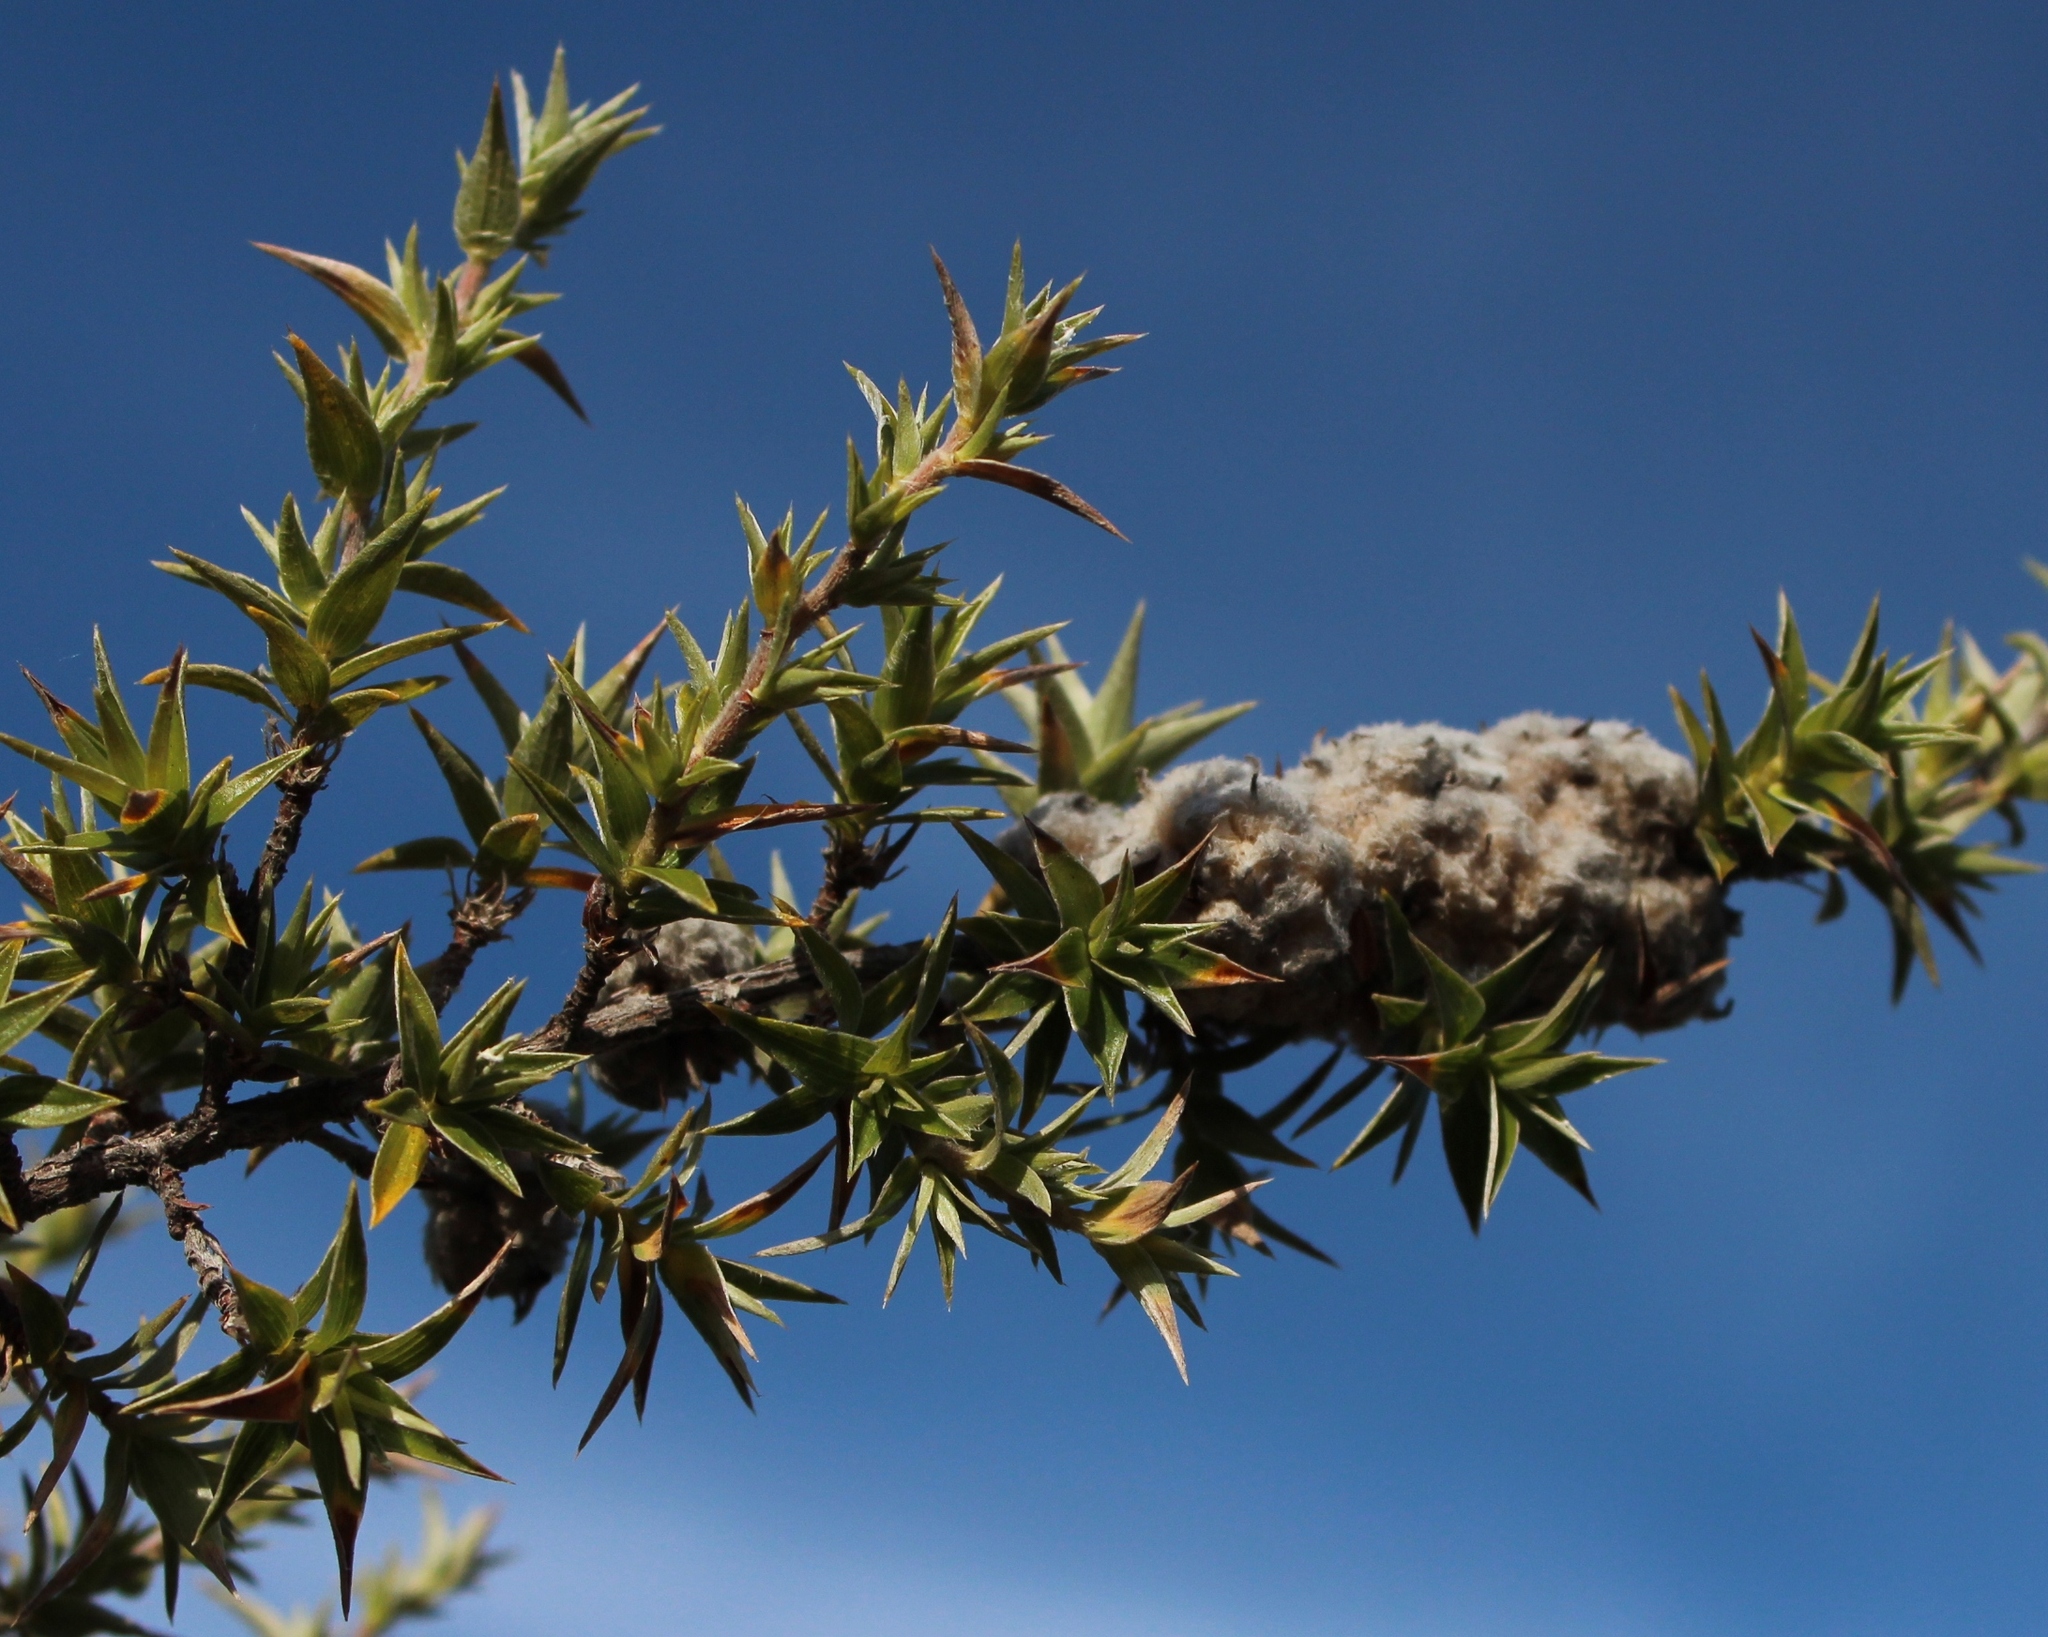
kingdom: Plantae
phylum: Tracheophyta
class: Magnoliopsida
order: Rosales
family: Rosaceae
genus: Cliffortia
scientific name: Cliffortia ruscifolia
